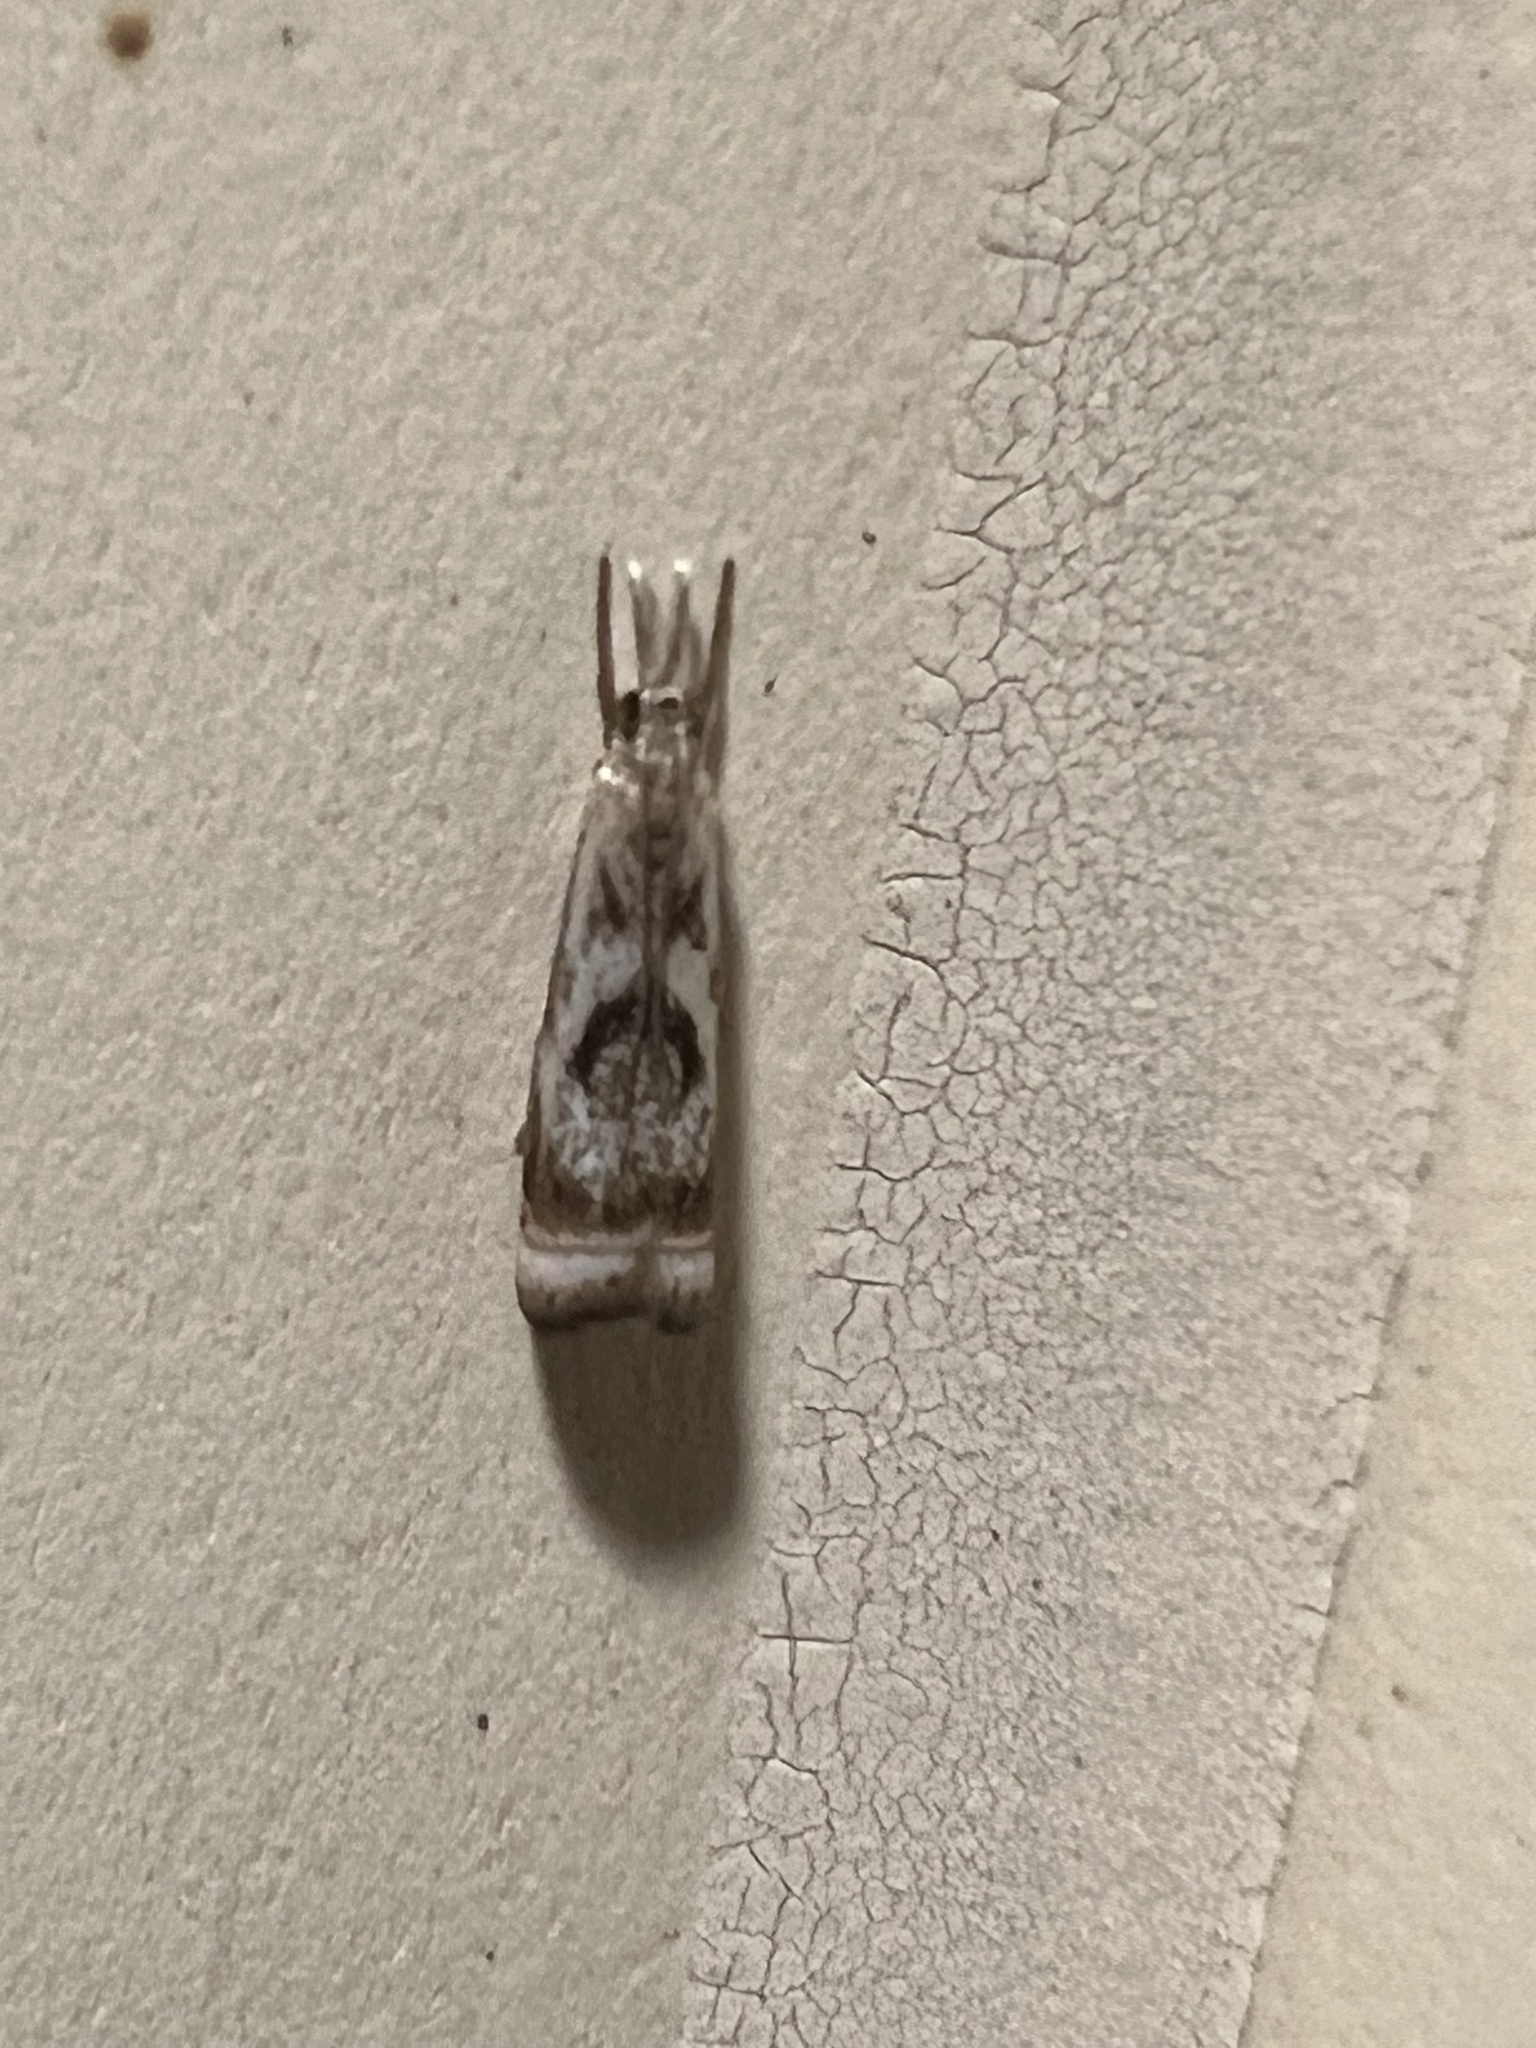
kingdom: Animalia
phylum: Arthropoda
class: Insecta
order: Lepidoptera
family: Crambidae
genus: Microcrambus
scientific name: Microcrambus elegans
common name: Elegant grass-veneer
